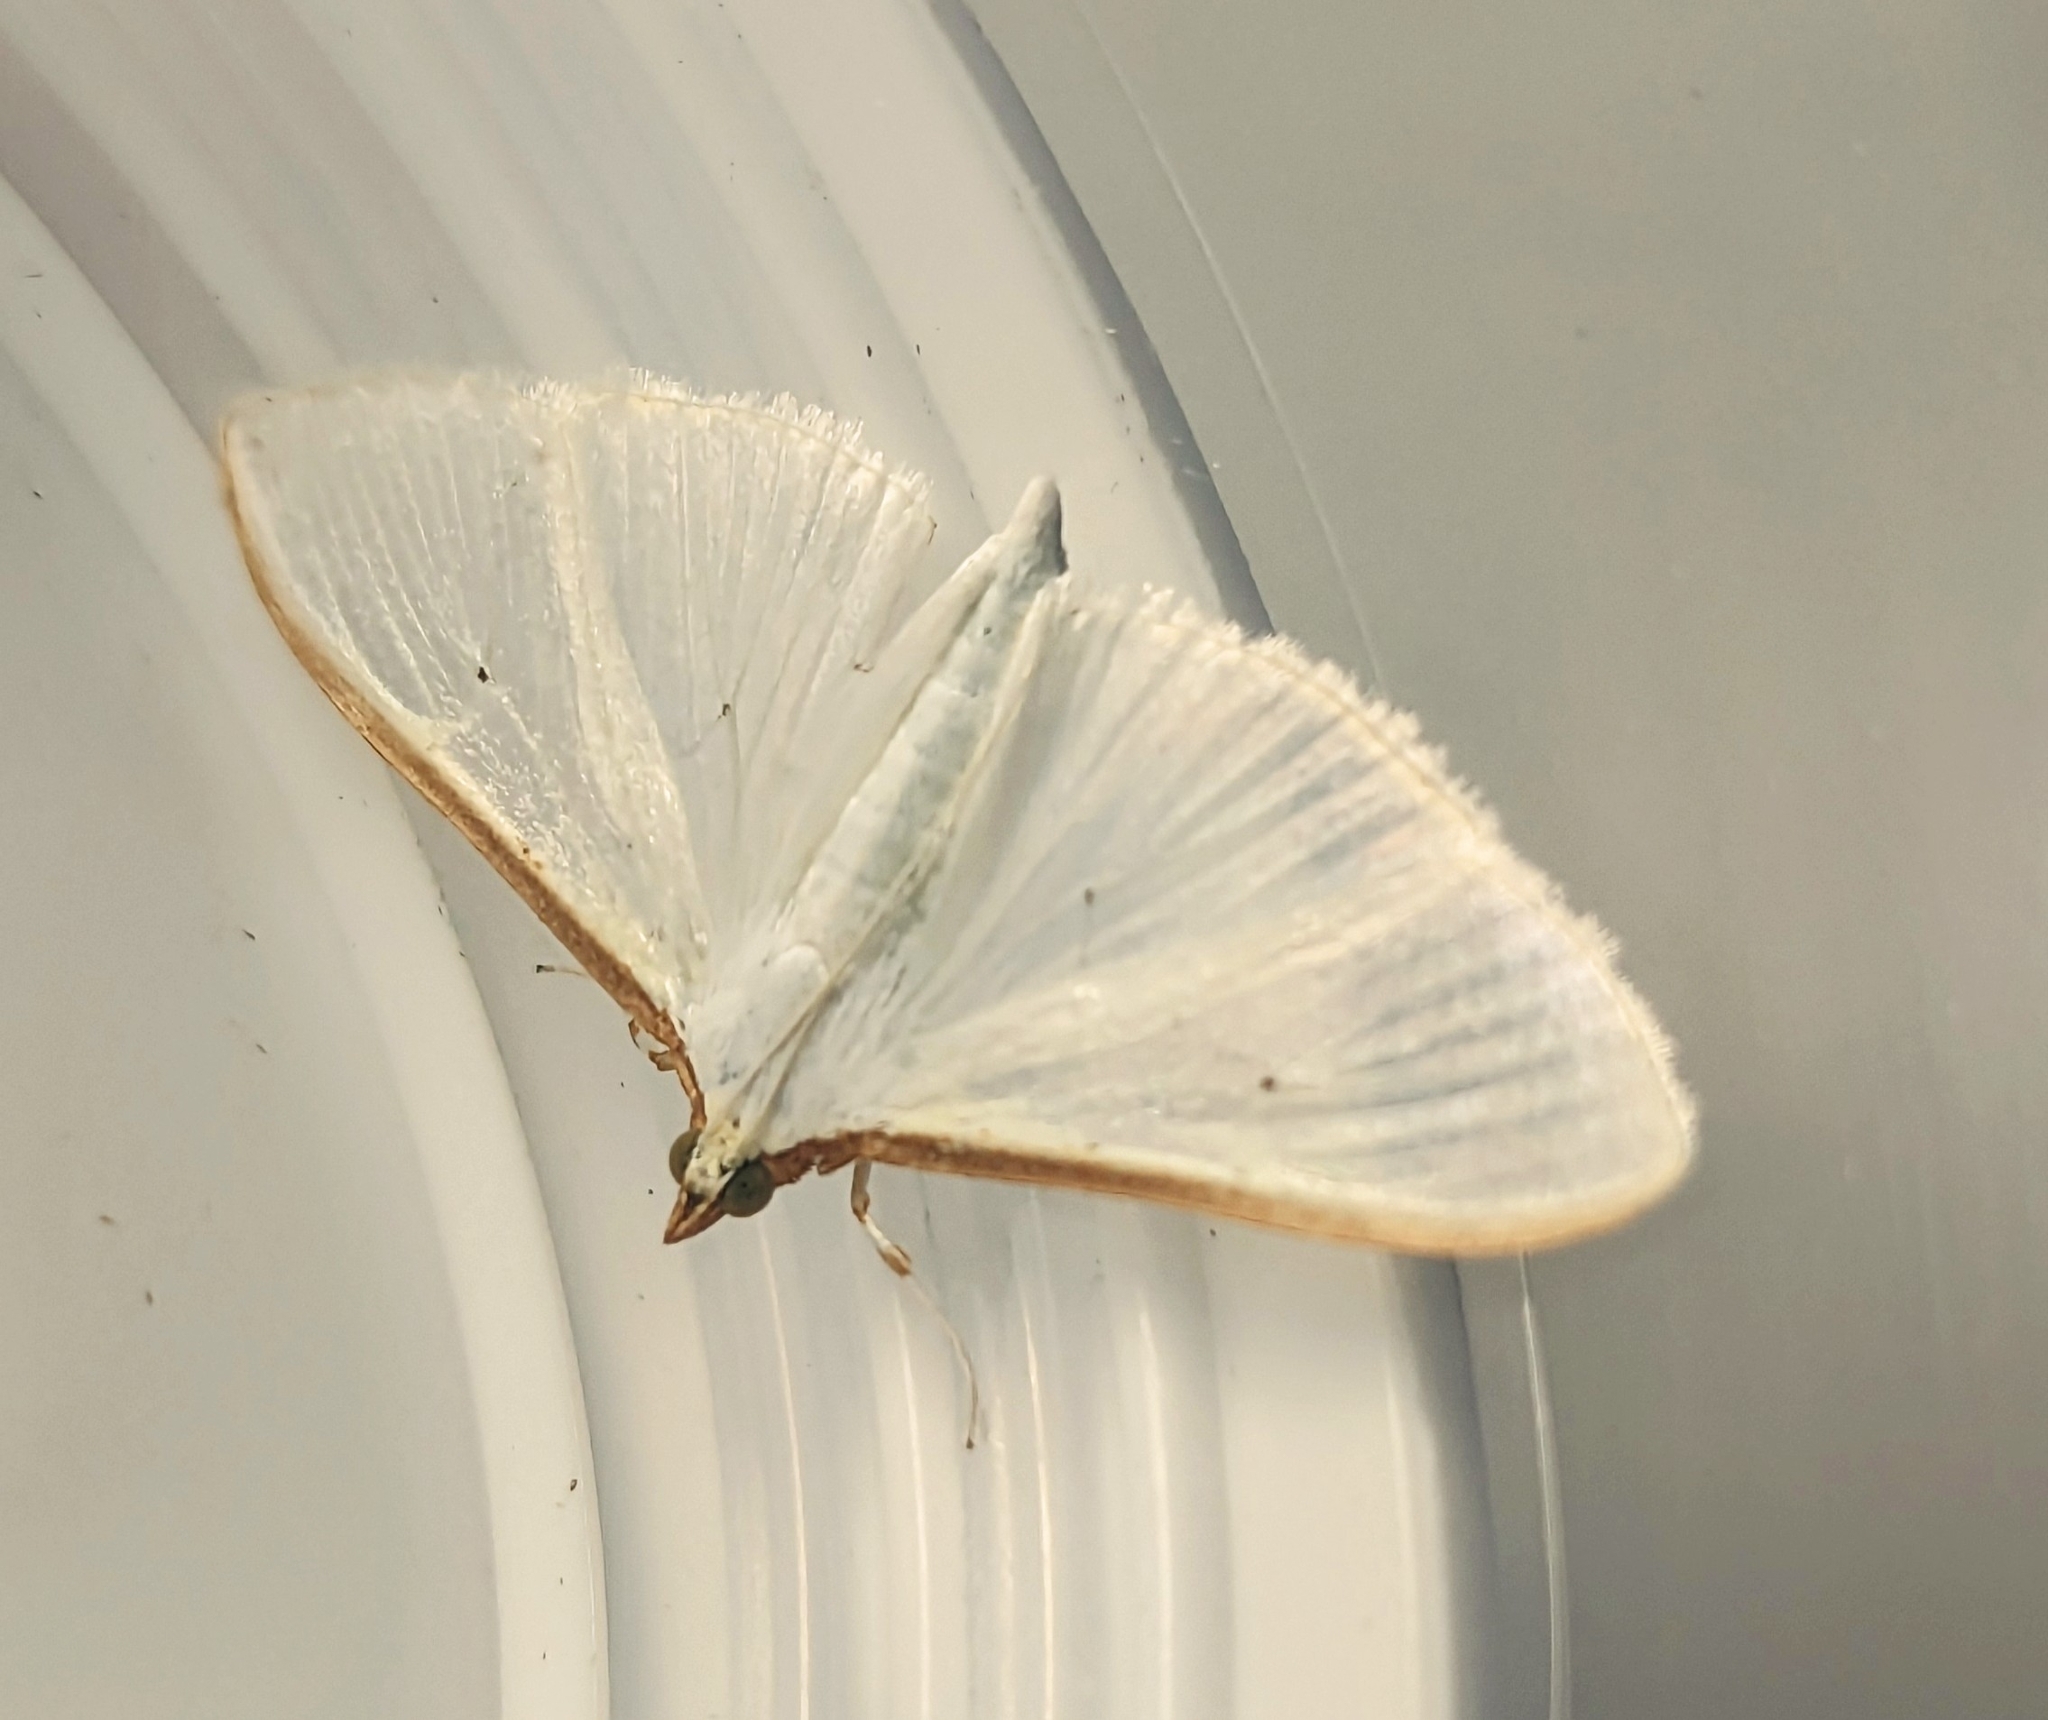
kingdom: Animalia
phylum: Arthropoda
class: Insecta
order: Lepidoptera
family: Crambidae
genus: Palpita
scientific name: Palpita vitrealis
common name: Olive-tree pearl
